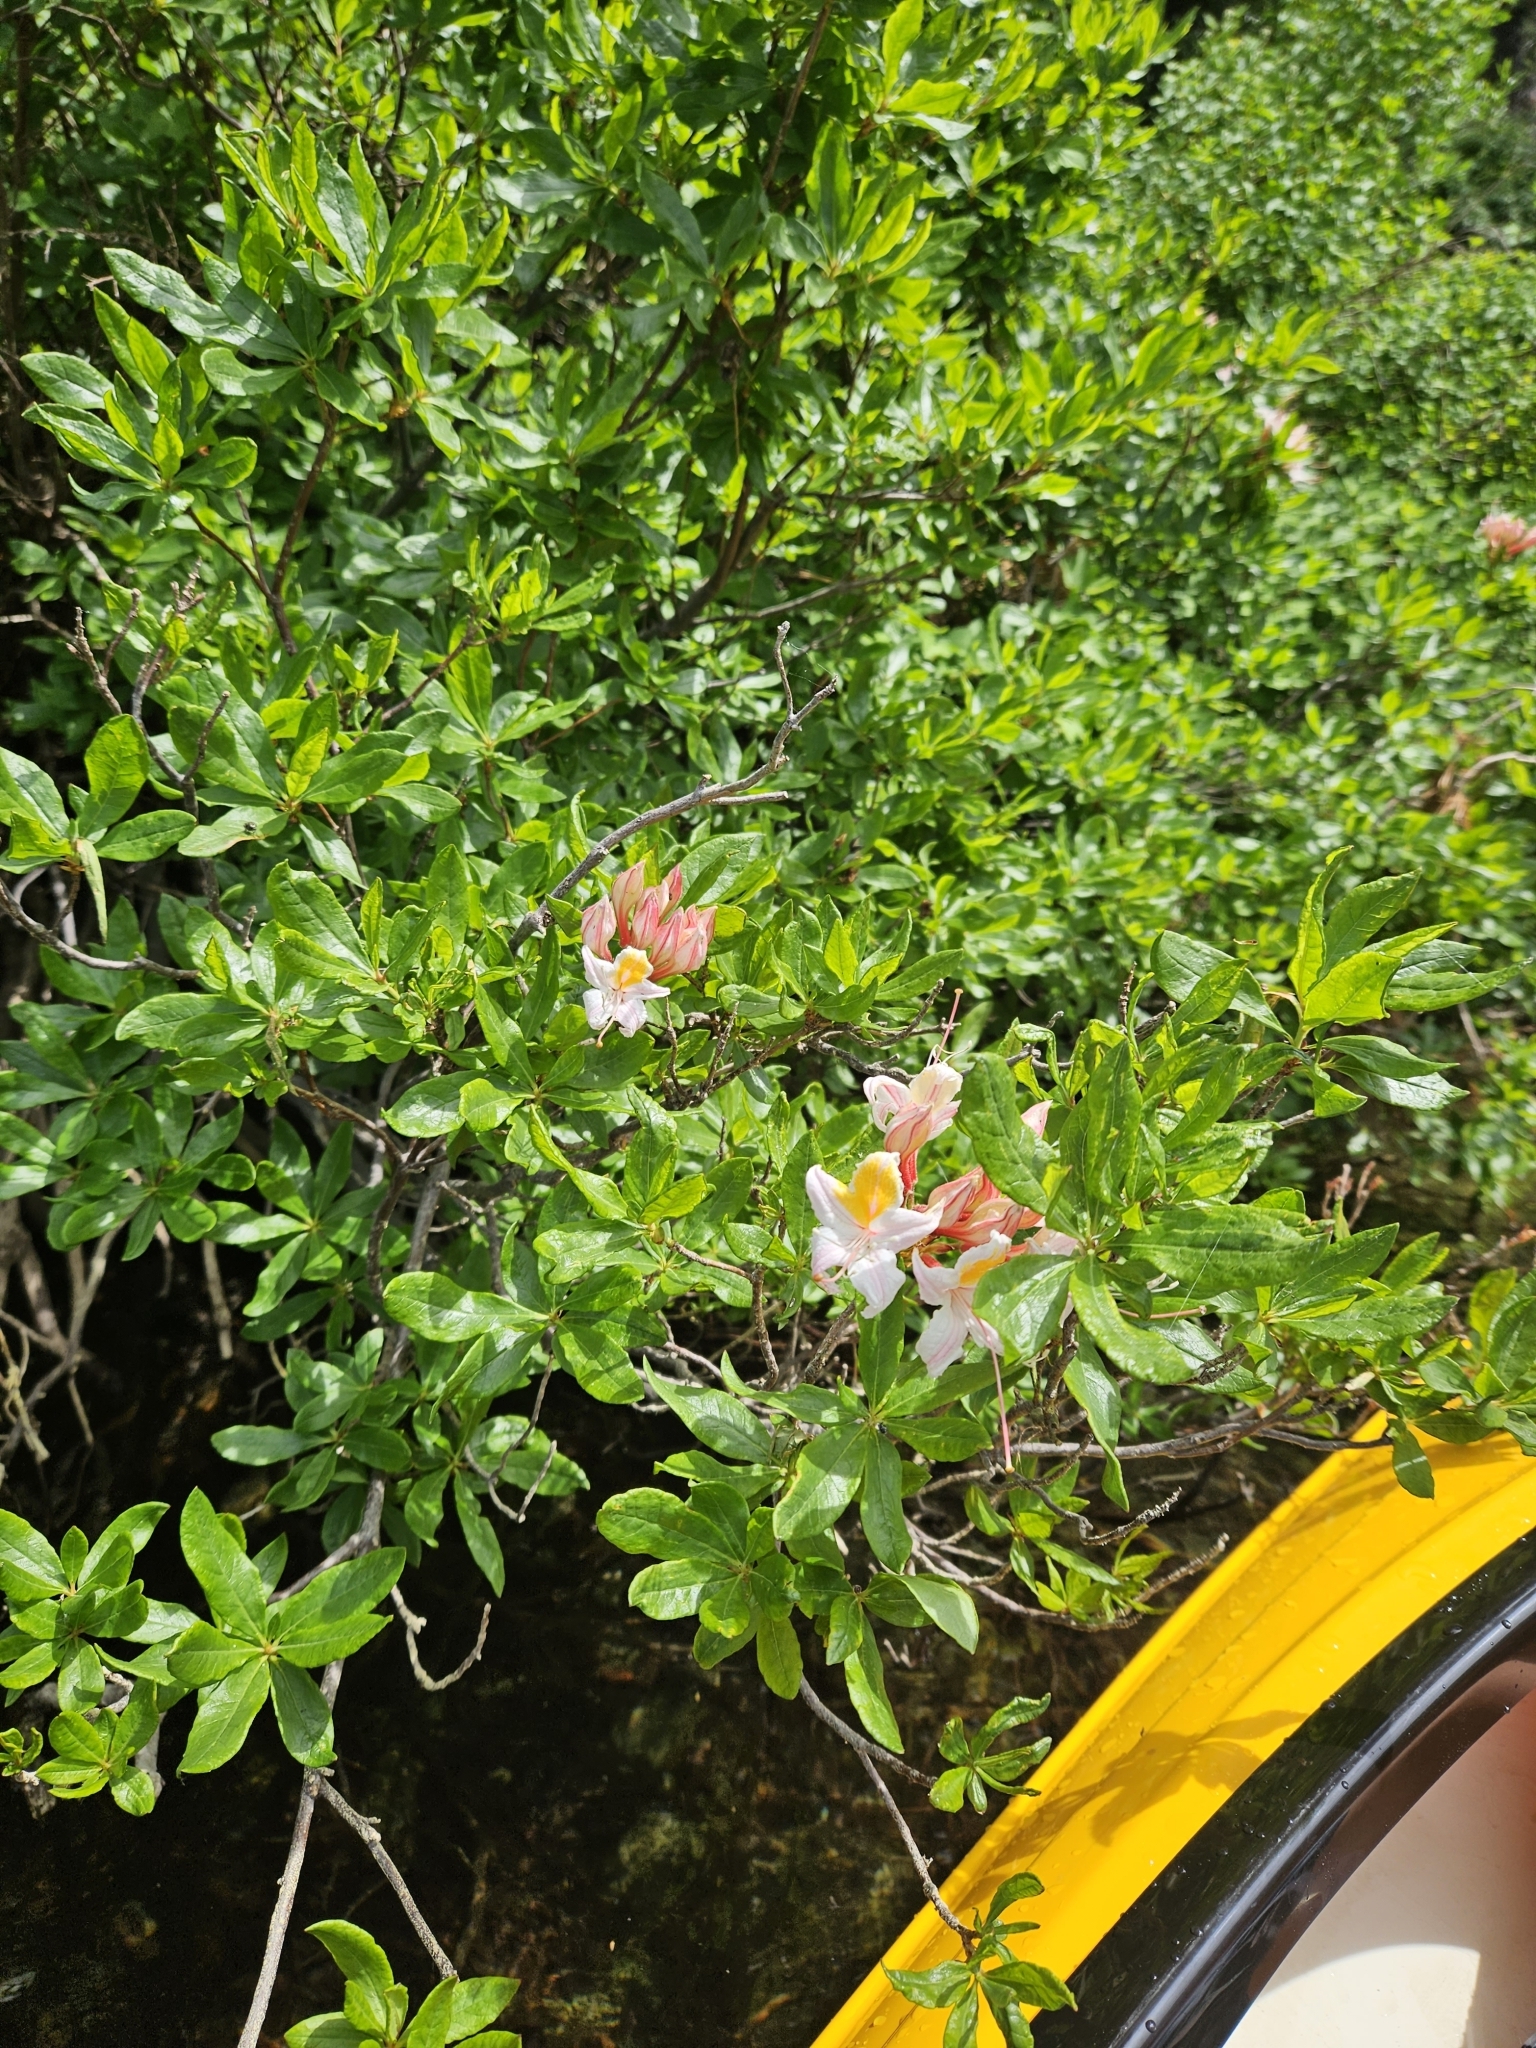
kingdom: Plantae
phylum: Tracheophyta
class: Magnoliopsida
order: Ericales
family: Ericaceae
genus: Rhododendron
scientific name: Rhododendron occidentale
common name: Western azalea
